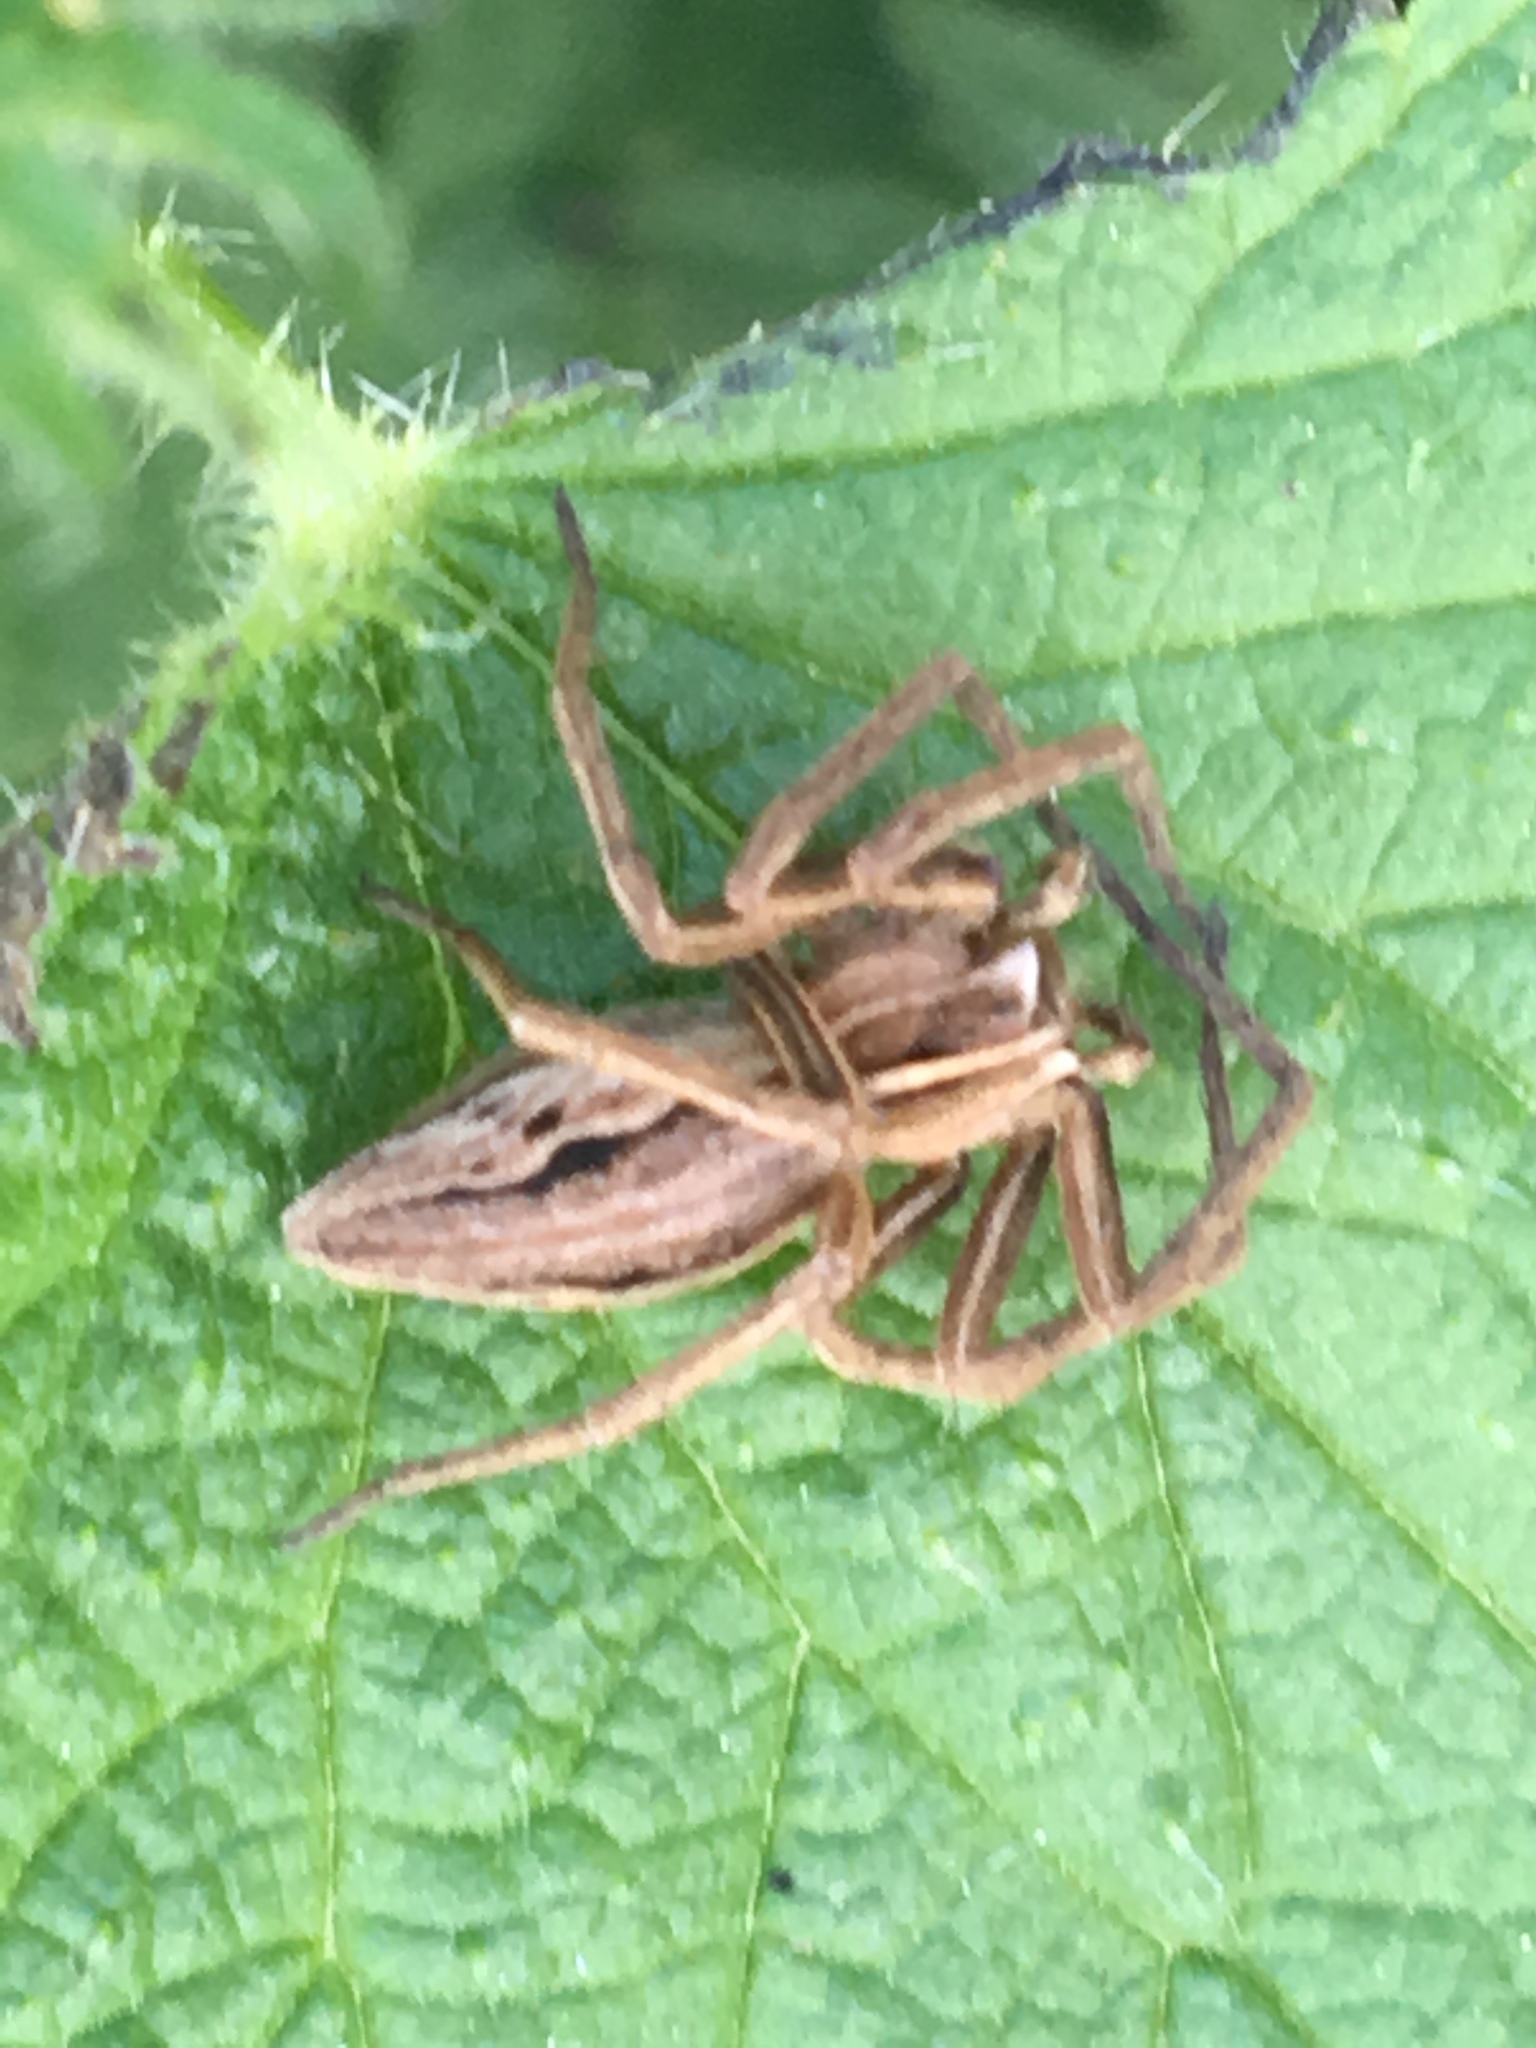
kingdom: Animalia
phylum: Arthropoda
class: Arachnida
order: Araneae
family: Pisauridae
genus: Pisaura
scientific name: Pisaura mirabilis
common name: Tent spider
